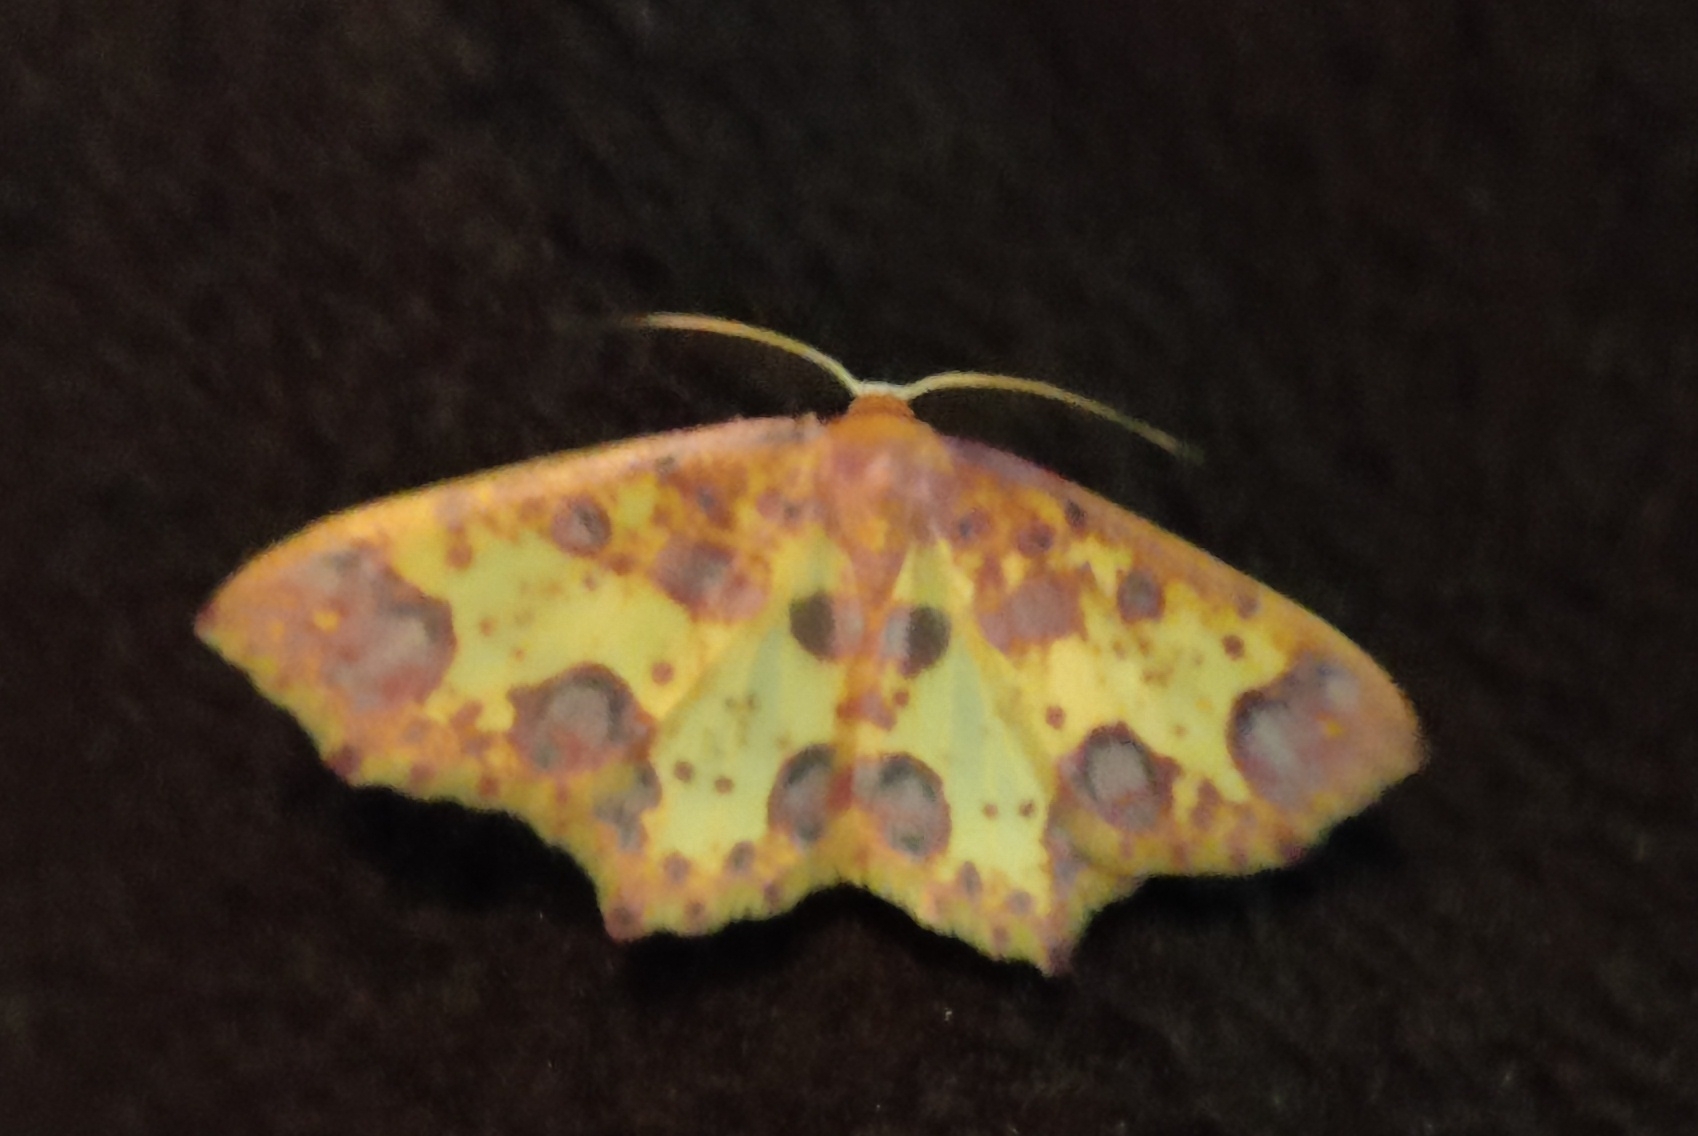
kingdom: Animalia
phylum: Arthropoda
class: Insecta
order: Lepidoptera
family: Geometridae
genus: Synegiodes
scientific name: Synegiodes sanguinaria
